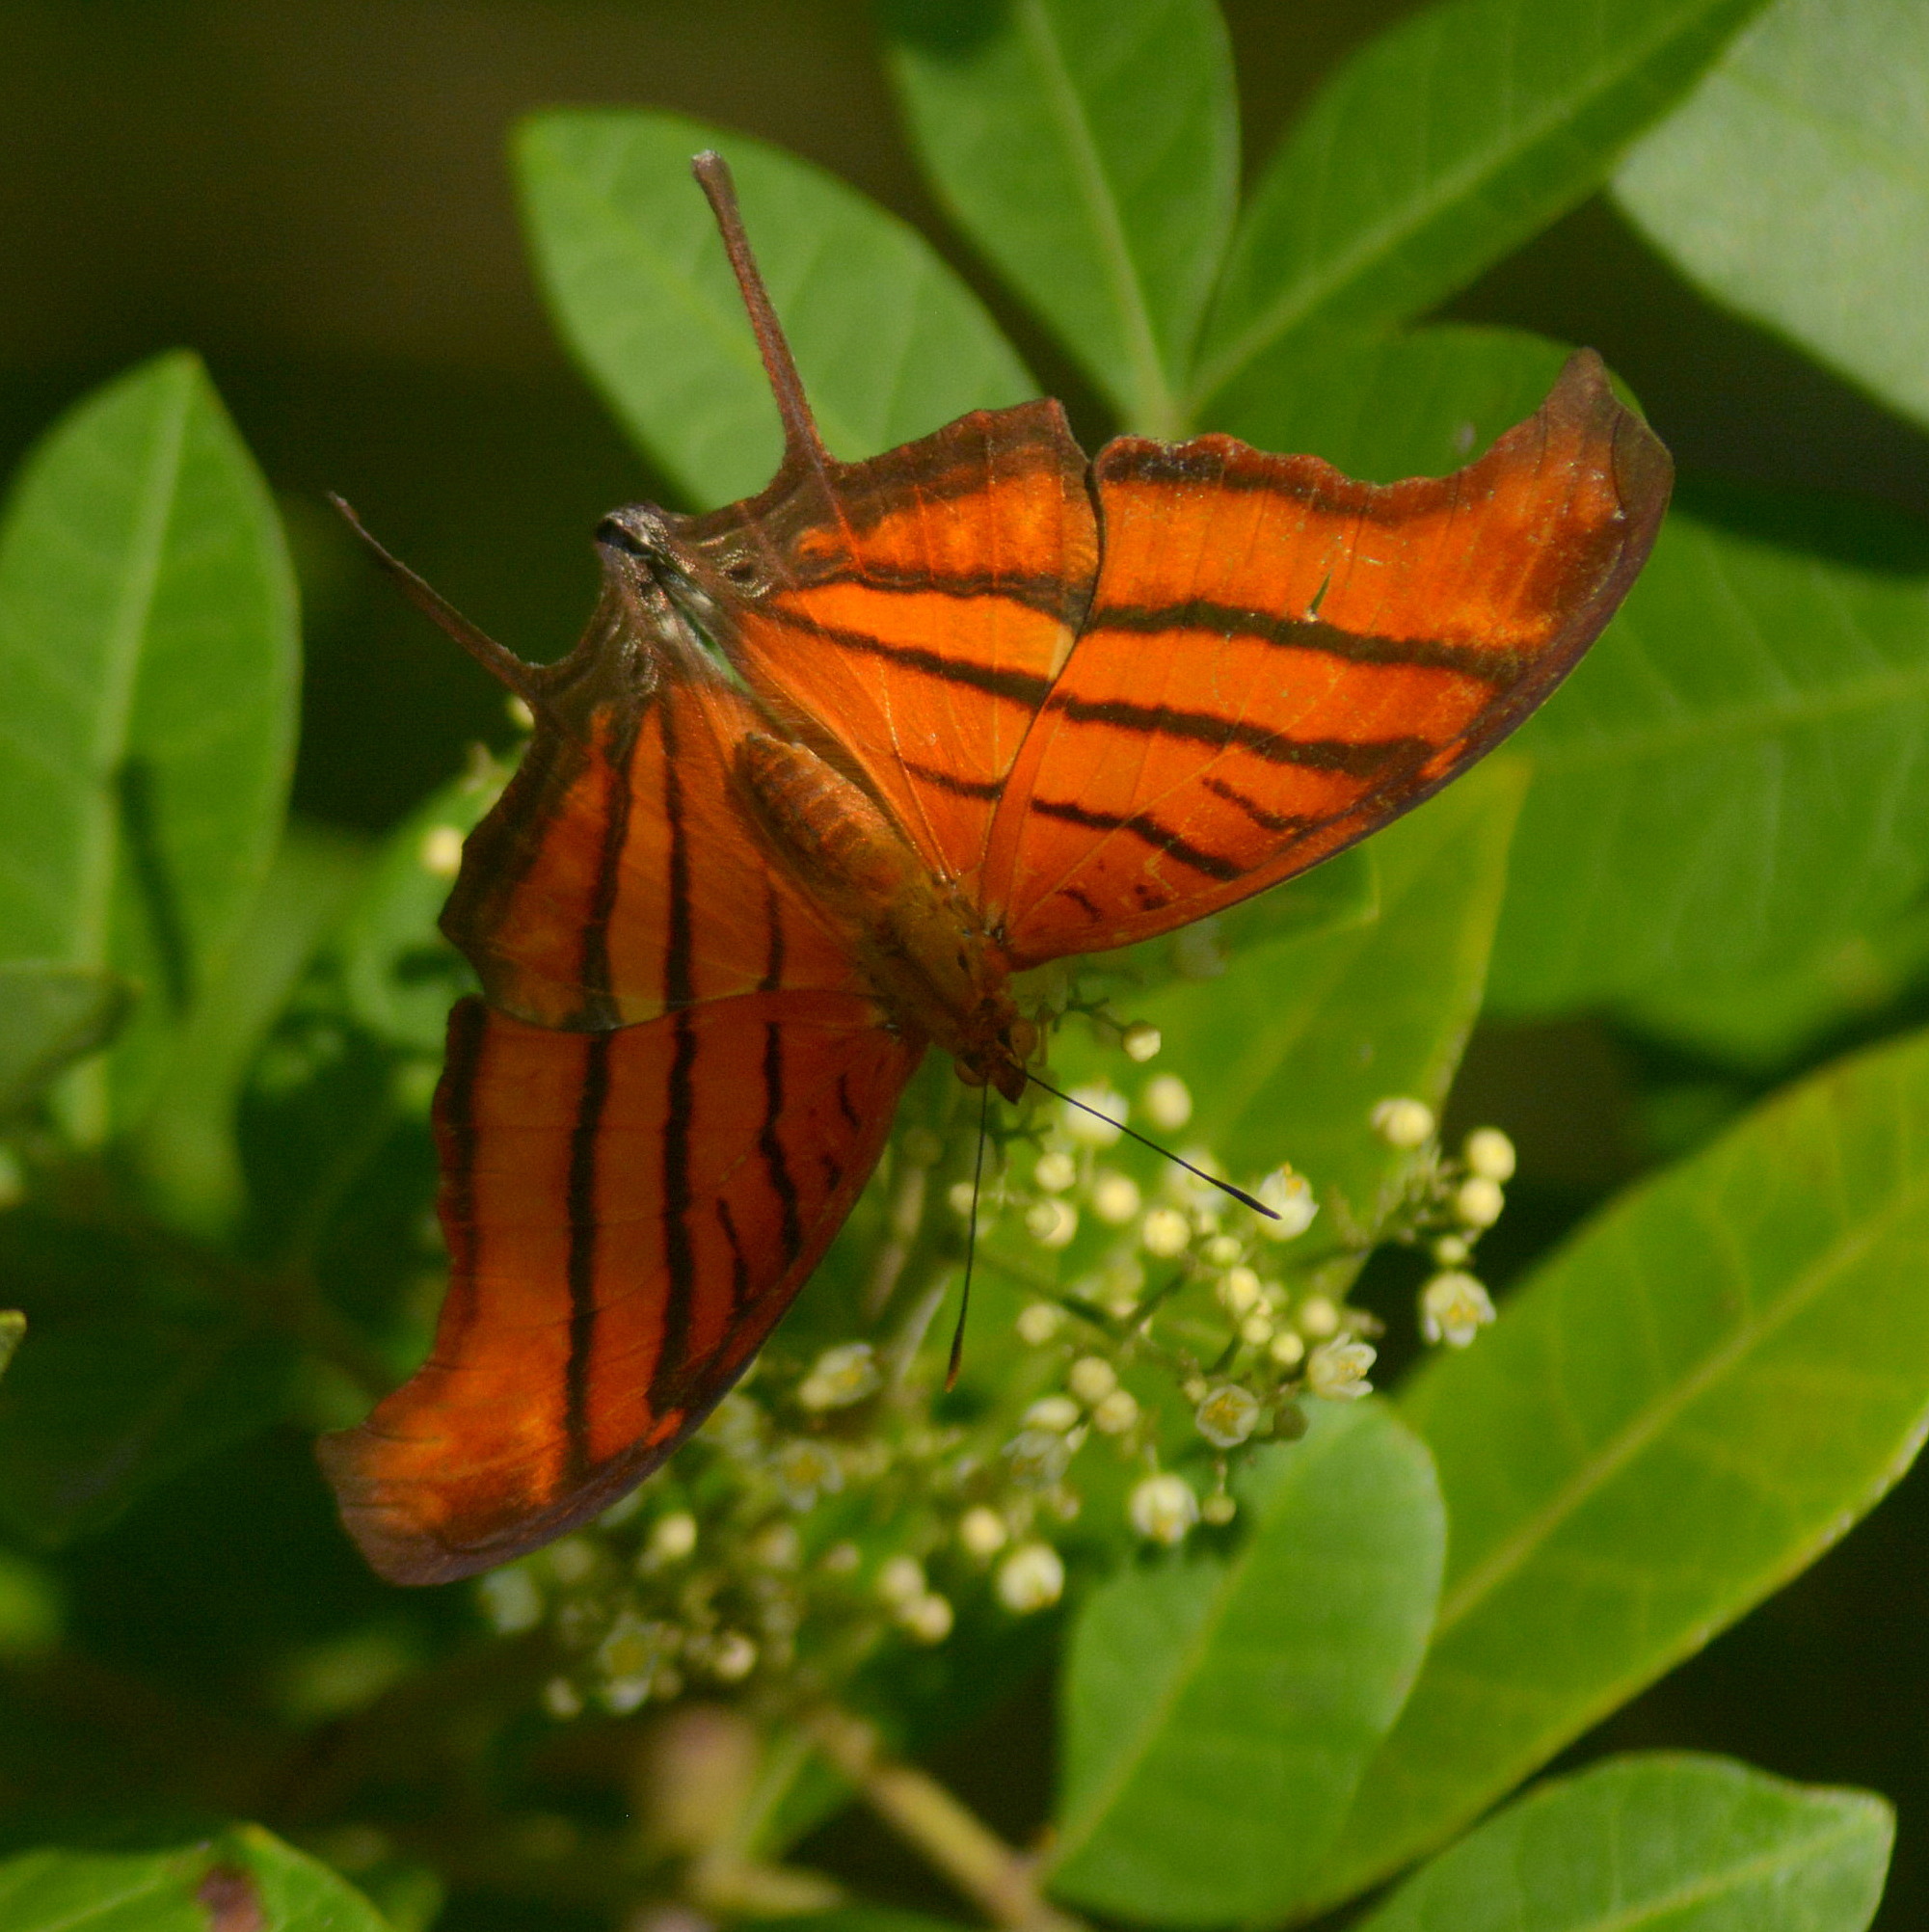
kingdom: Animalia
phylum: Arthropoda
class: Insecta
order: Lepidoptera
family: Nymphalidae
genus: Marpesia
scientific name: Marpesia petreus
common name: Red dagger wing
